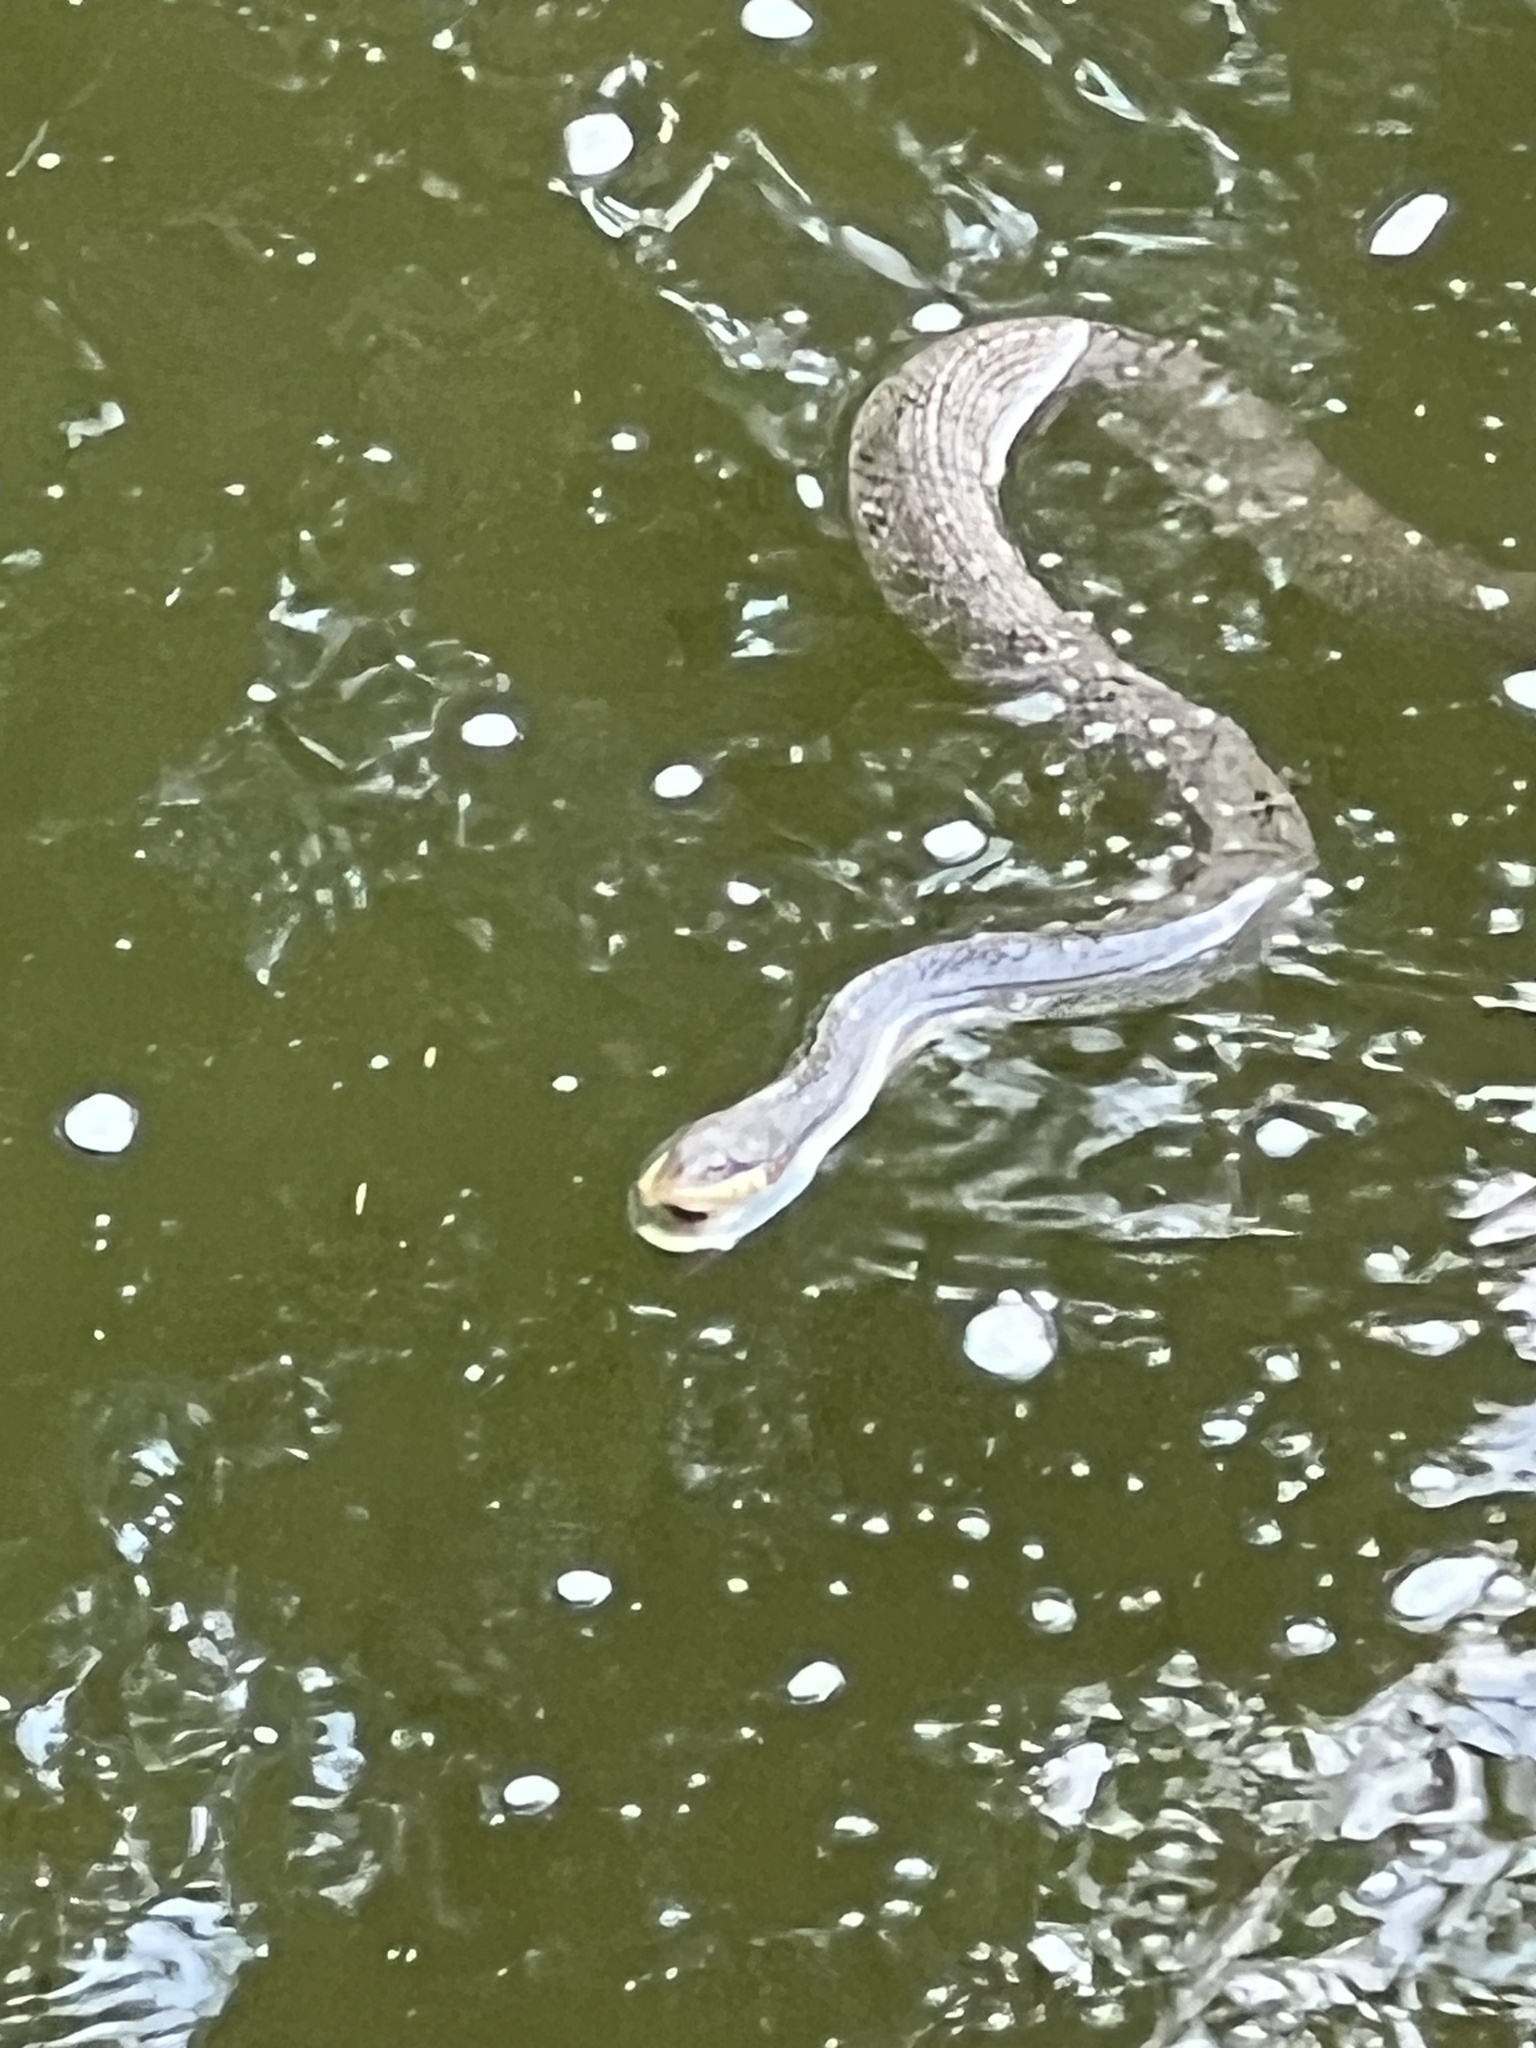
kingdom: Animalia
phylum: Chordata
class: Squamata
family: Colubridae
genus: Nerodia
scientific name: Nerodia erythrogaster
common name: Plainbelly water snake
